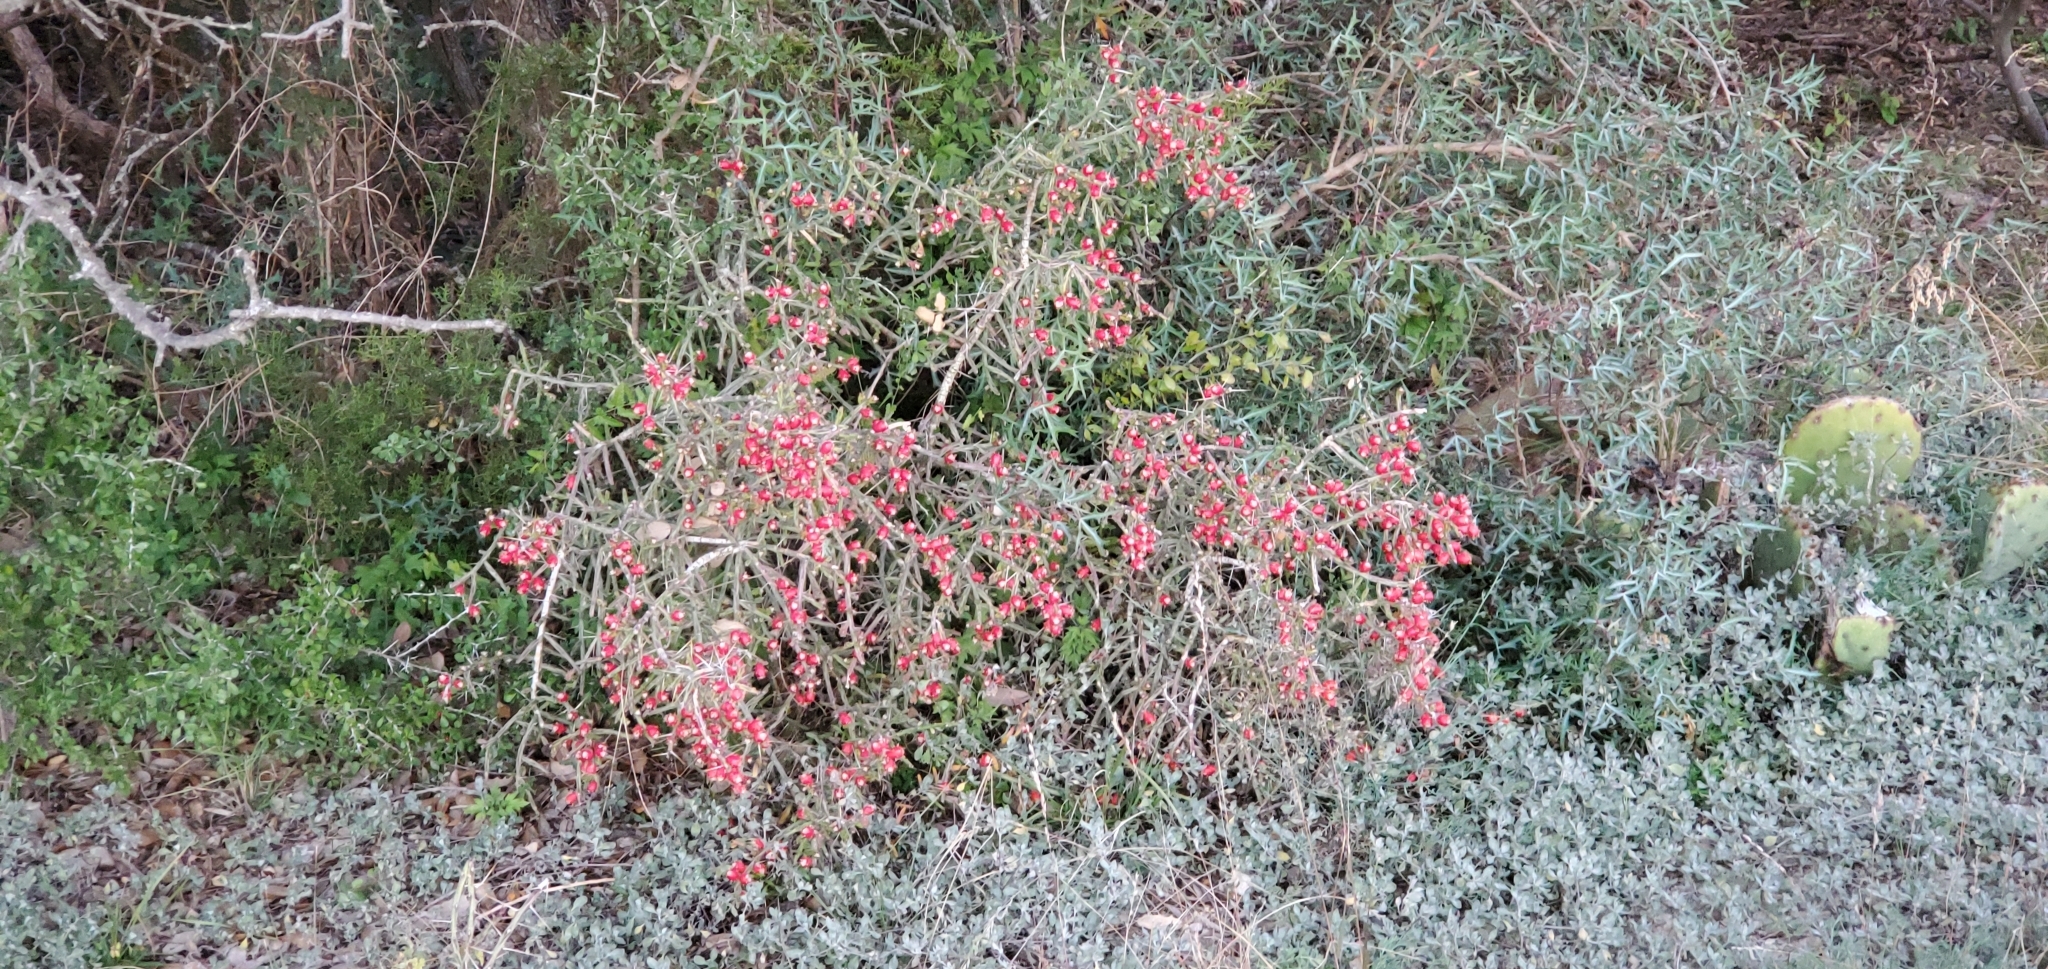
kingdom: Plantae
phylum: Tracheophyta
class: Magnoliopsida
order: Caryophyllales
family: Cactaceae
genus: Cylindropuntia
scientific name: Cylindropuntia leptocaulis
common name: Christmas cactus
